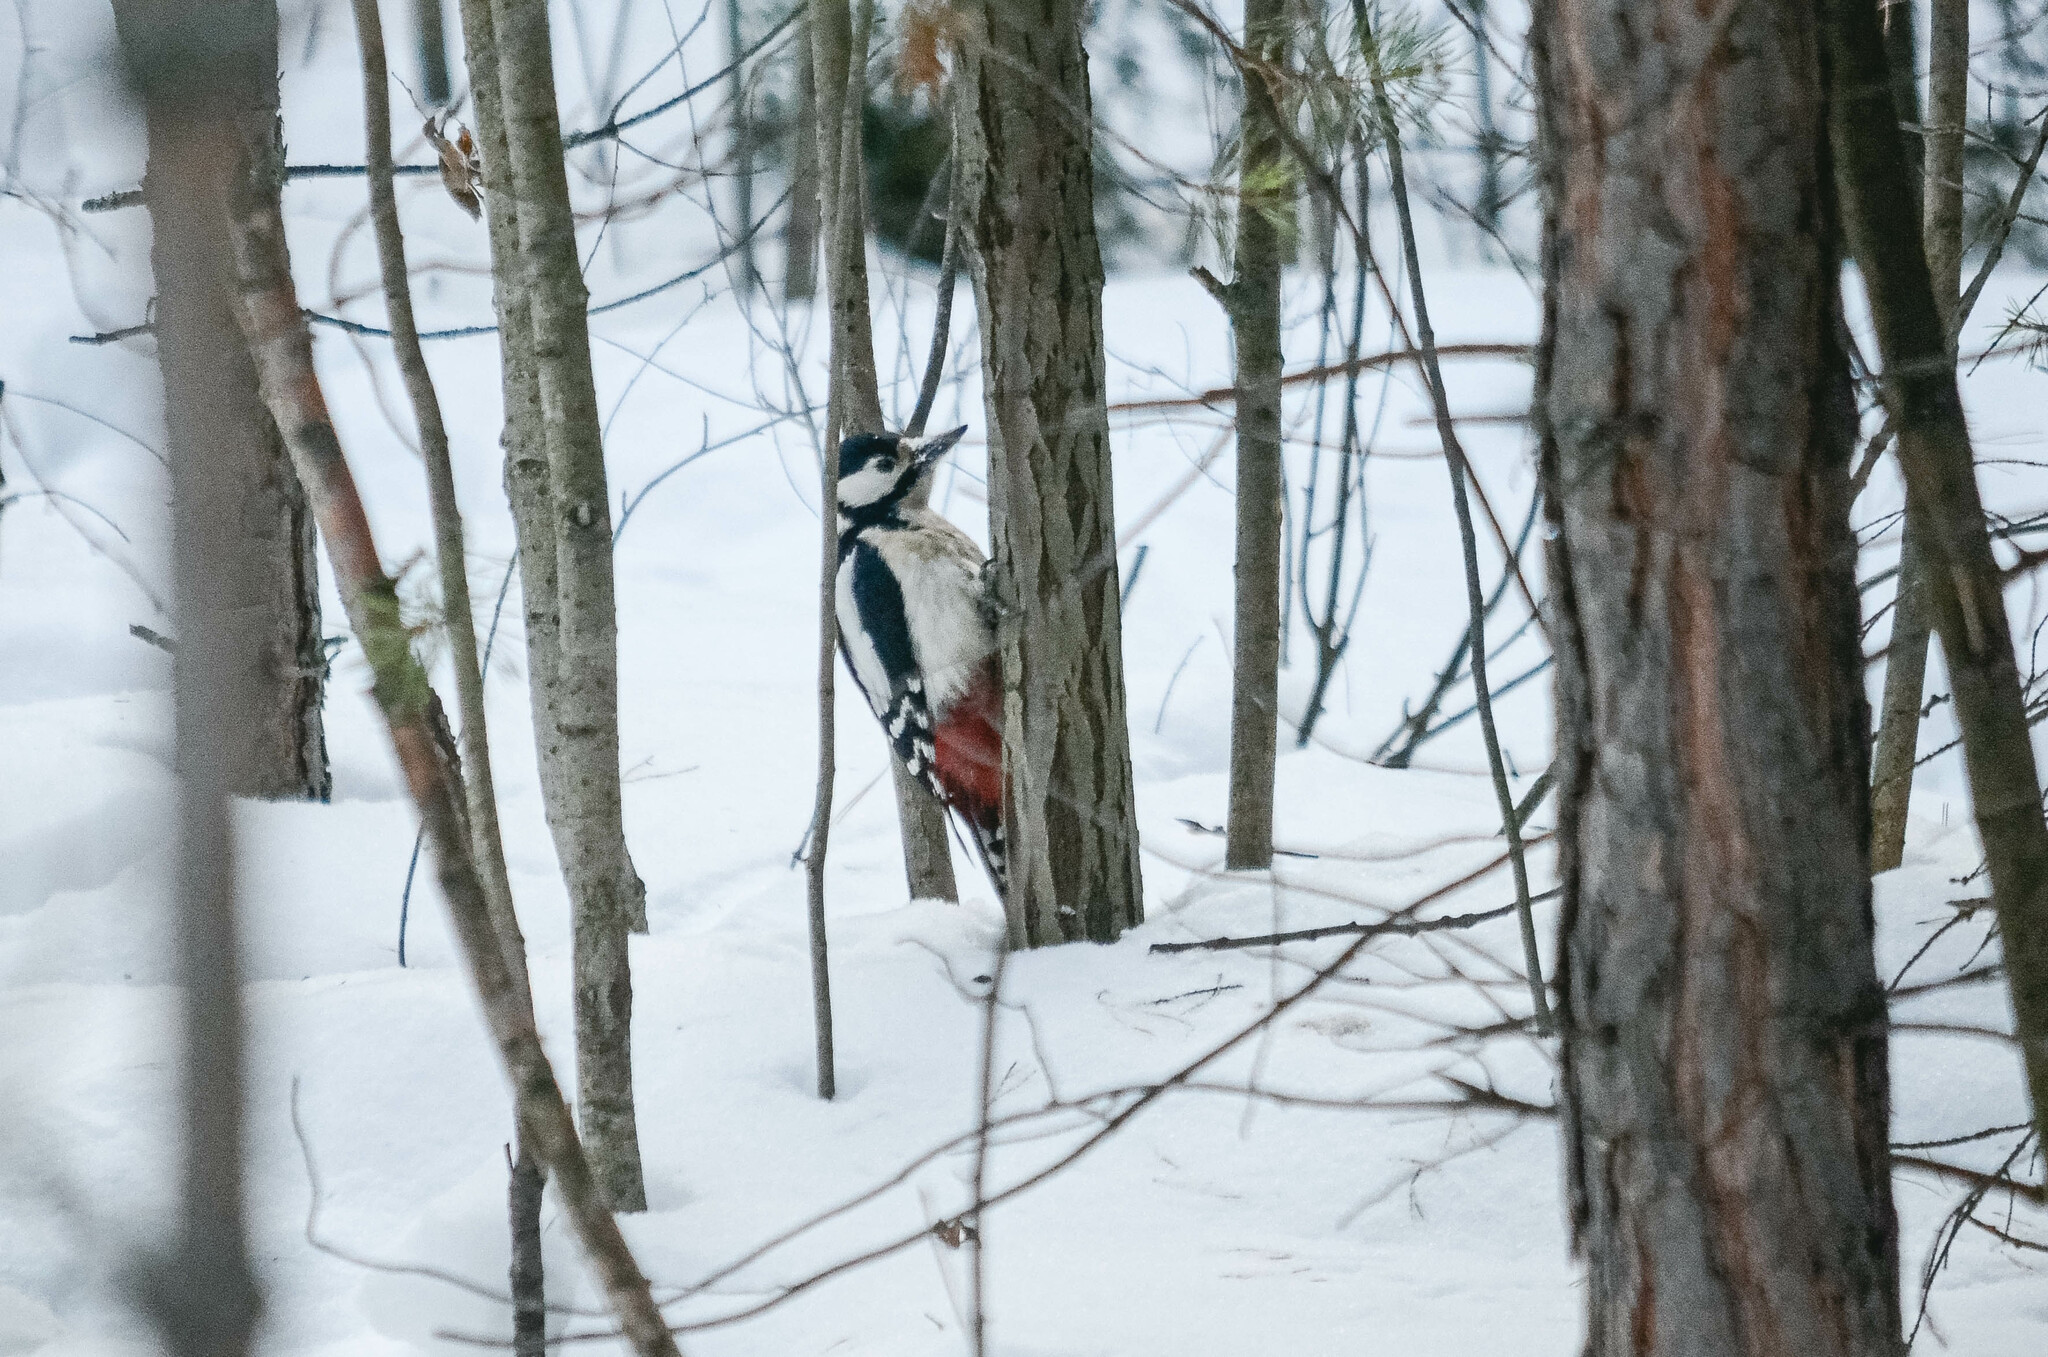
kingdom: Animalia
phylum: Chordata
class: Aves
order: Piciformes
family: Picidae
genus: Dendrocopos
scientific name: Dendrocopos major
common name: Great spotted woodpecker
